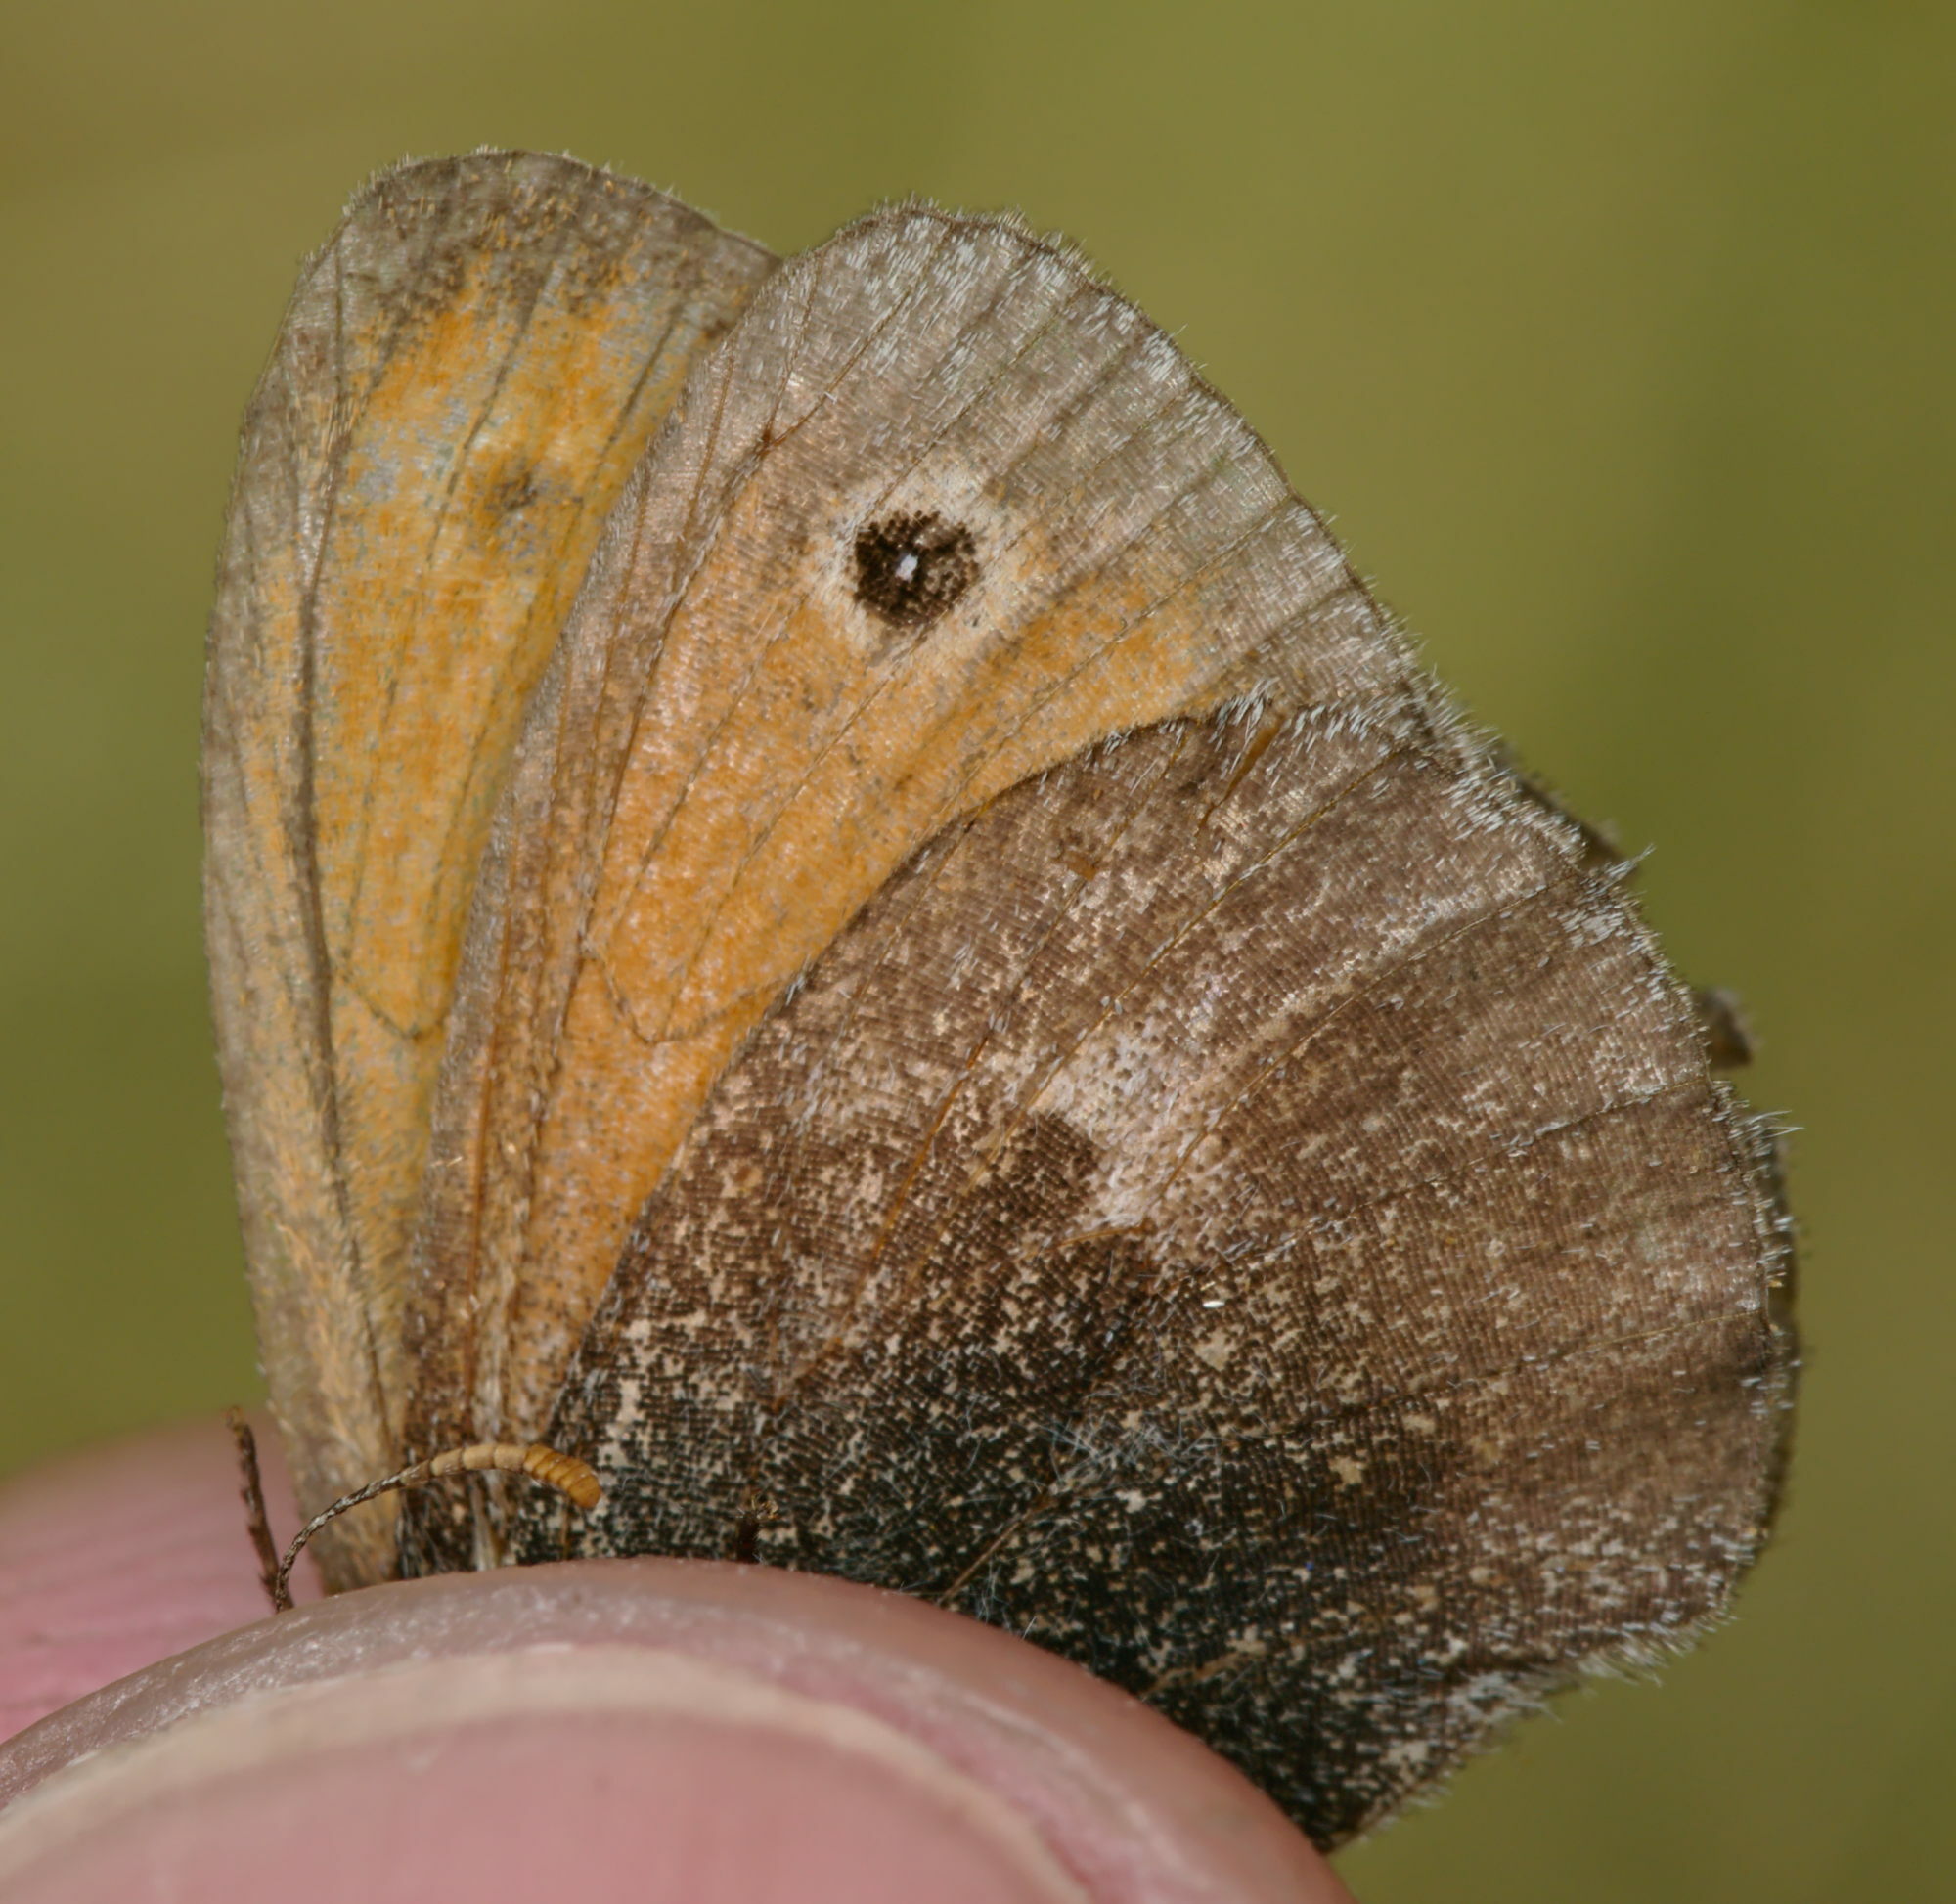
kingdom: Animalia
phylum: Arthropoda
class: Insecta
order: Lepidoptera
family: Nymphalidae
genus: Coenonympha
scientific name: Coenonympha pamphilus
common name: Small heath
